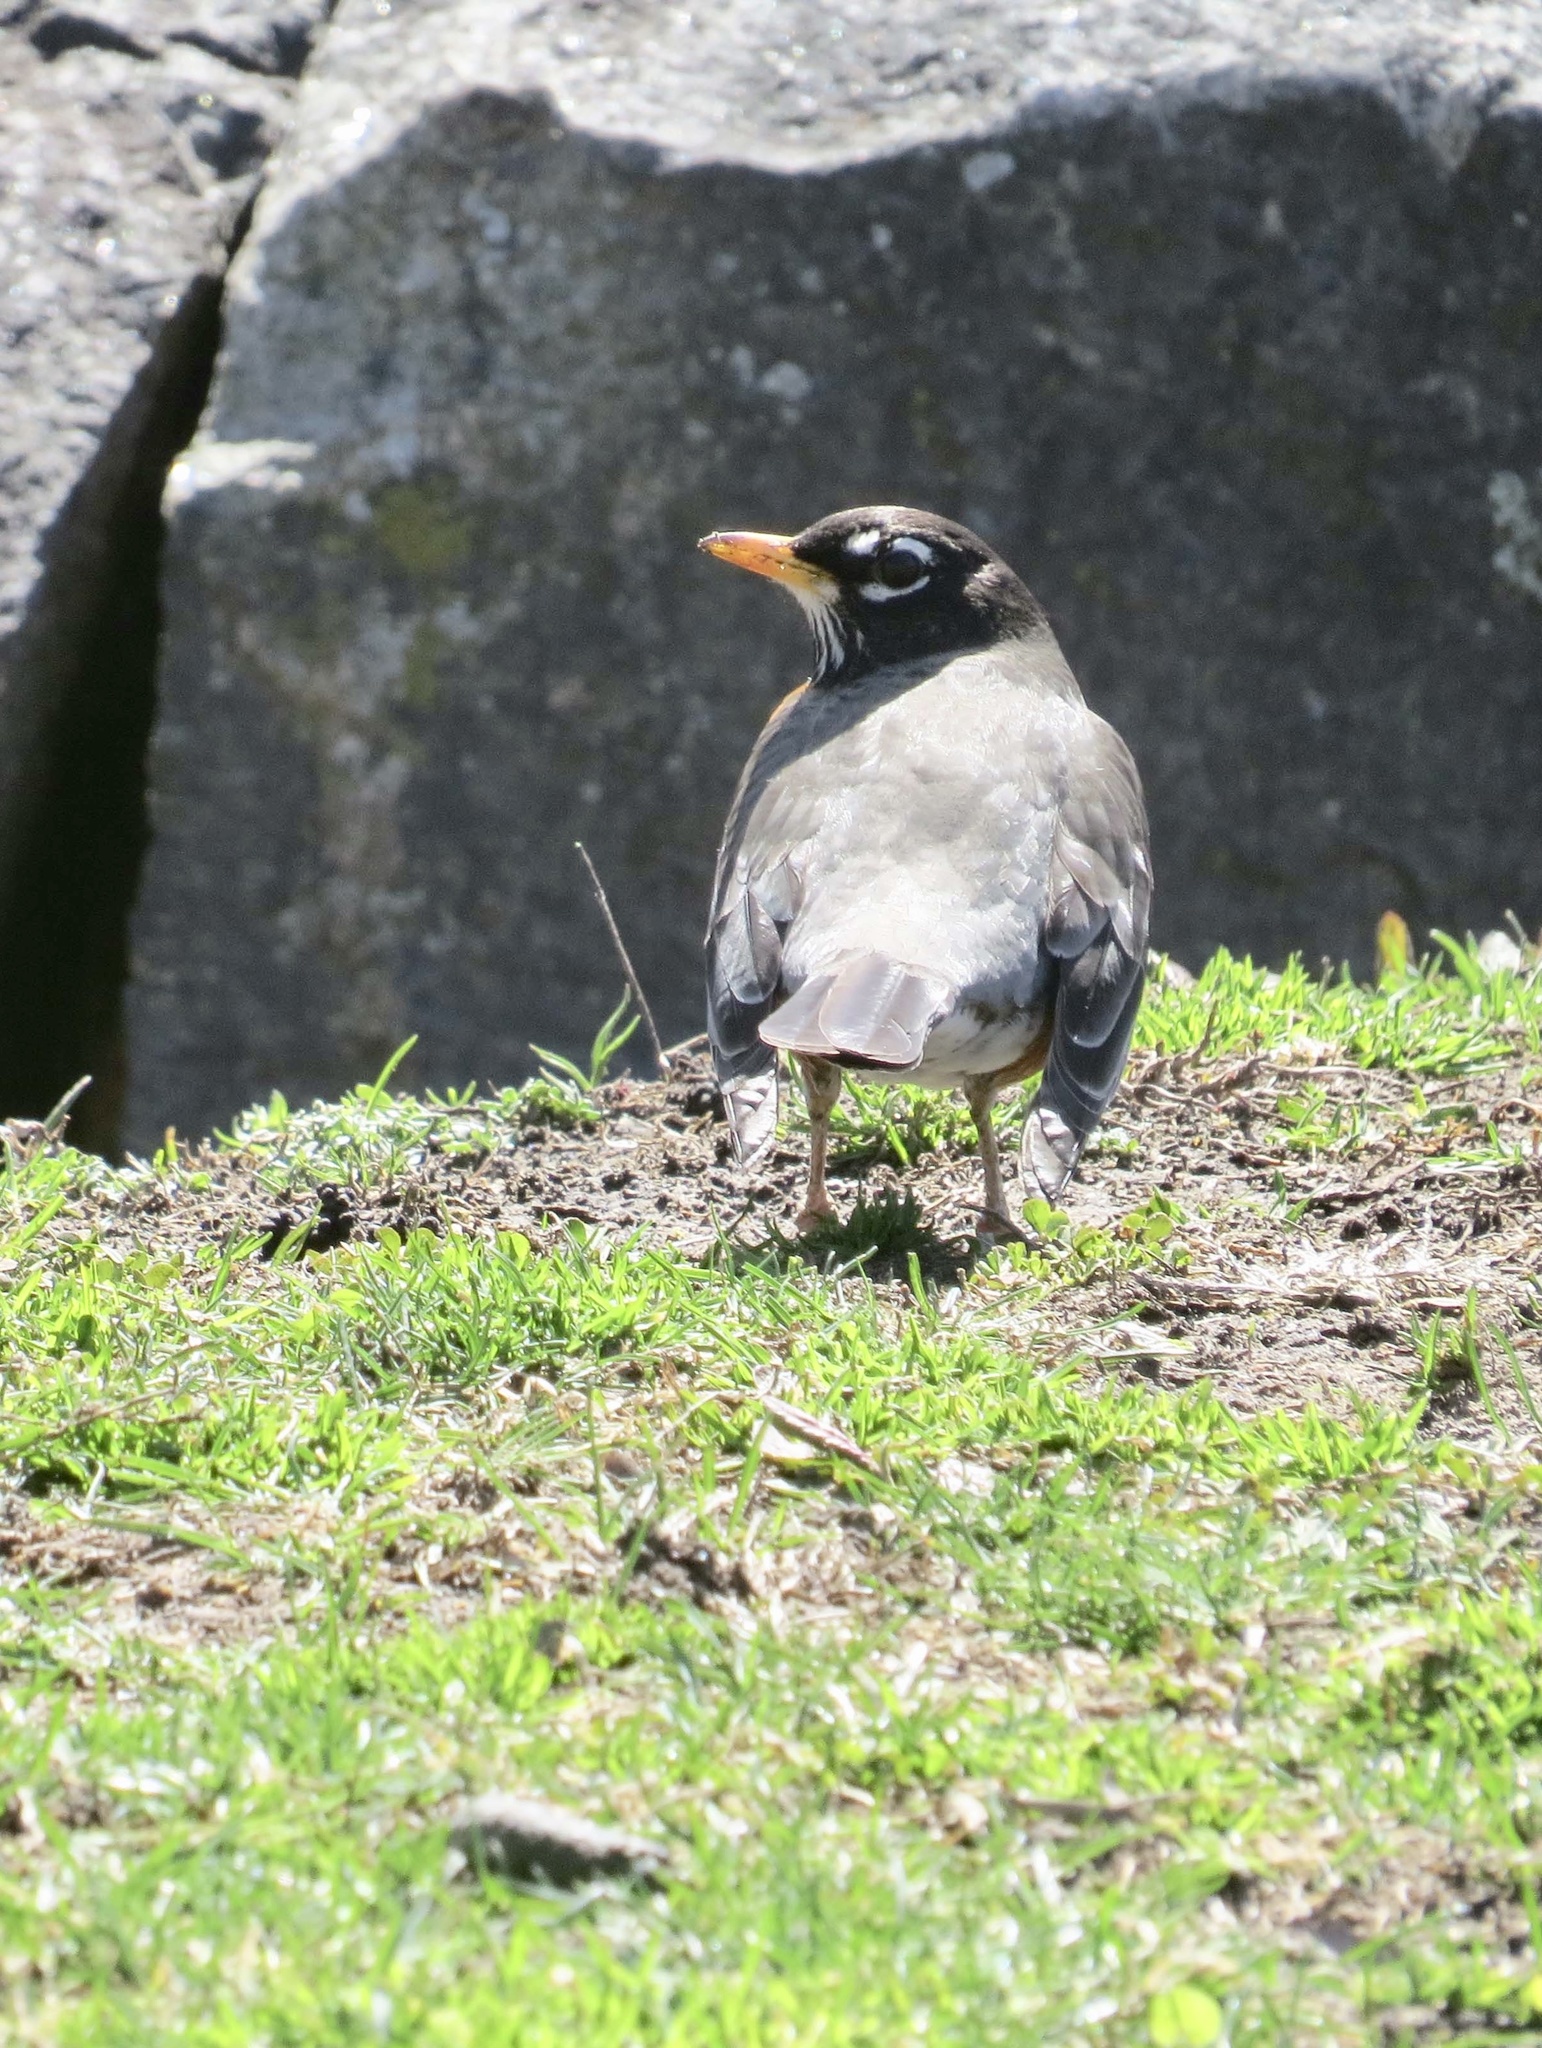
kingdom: Animalia
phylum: Chordata
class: Aves
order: Passeriformes
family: Turdidae
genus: Turdus
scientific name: Turdus migratorius
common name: American robin
